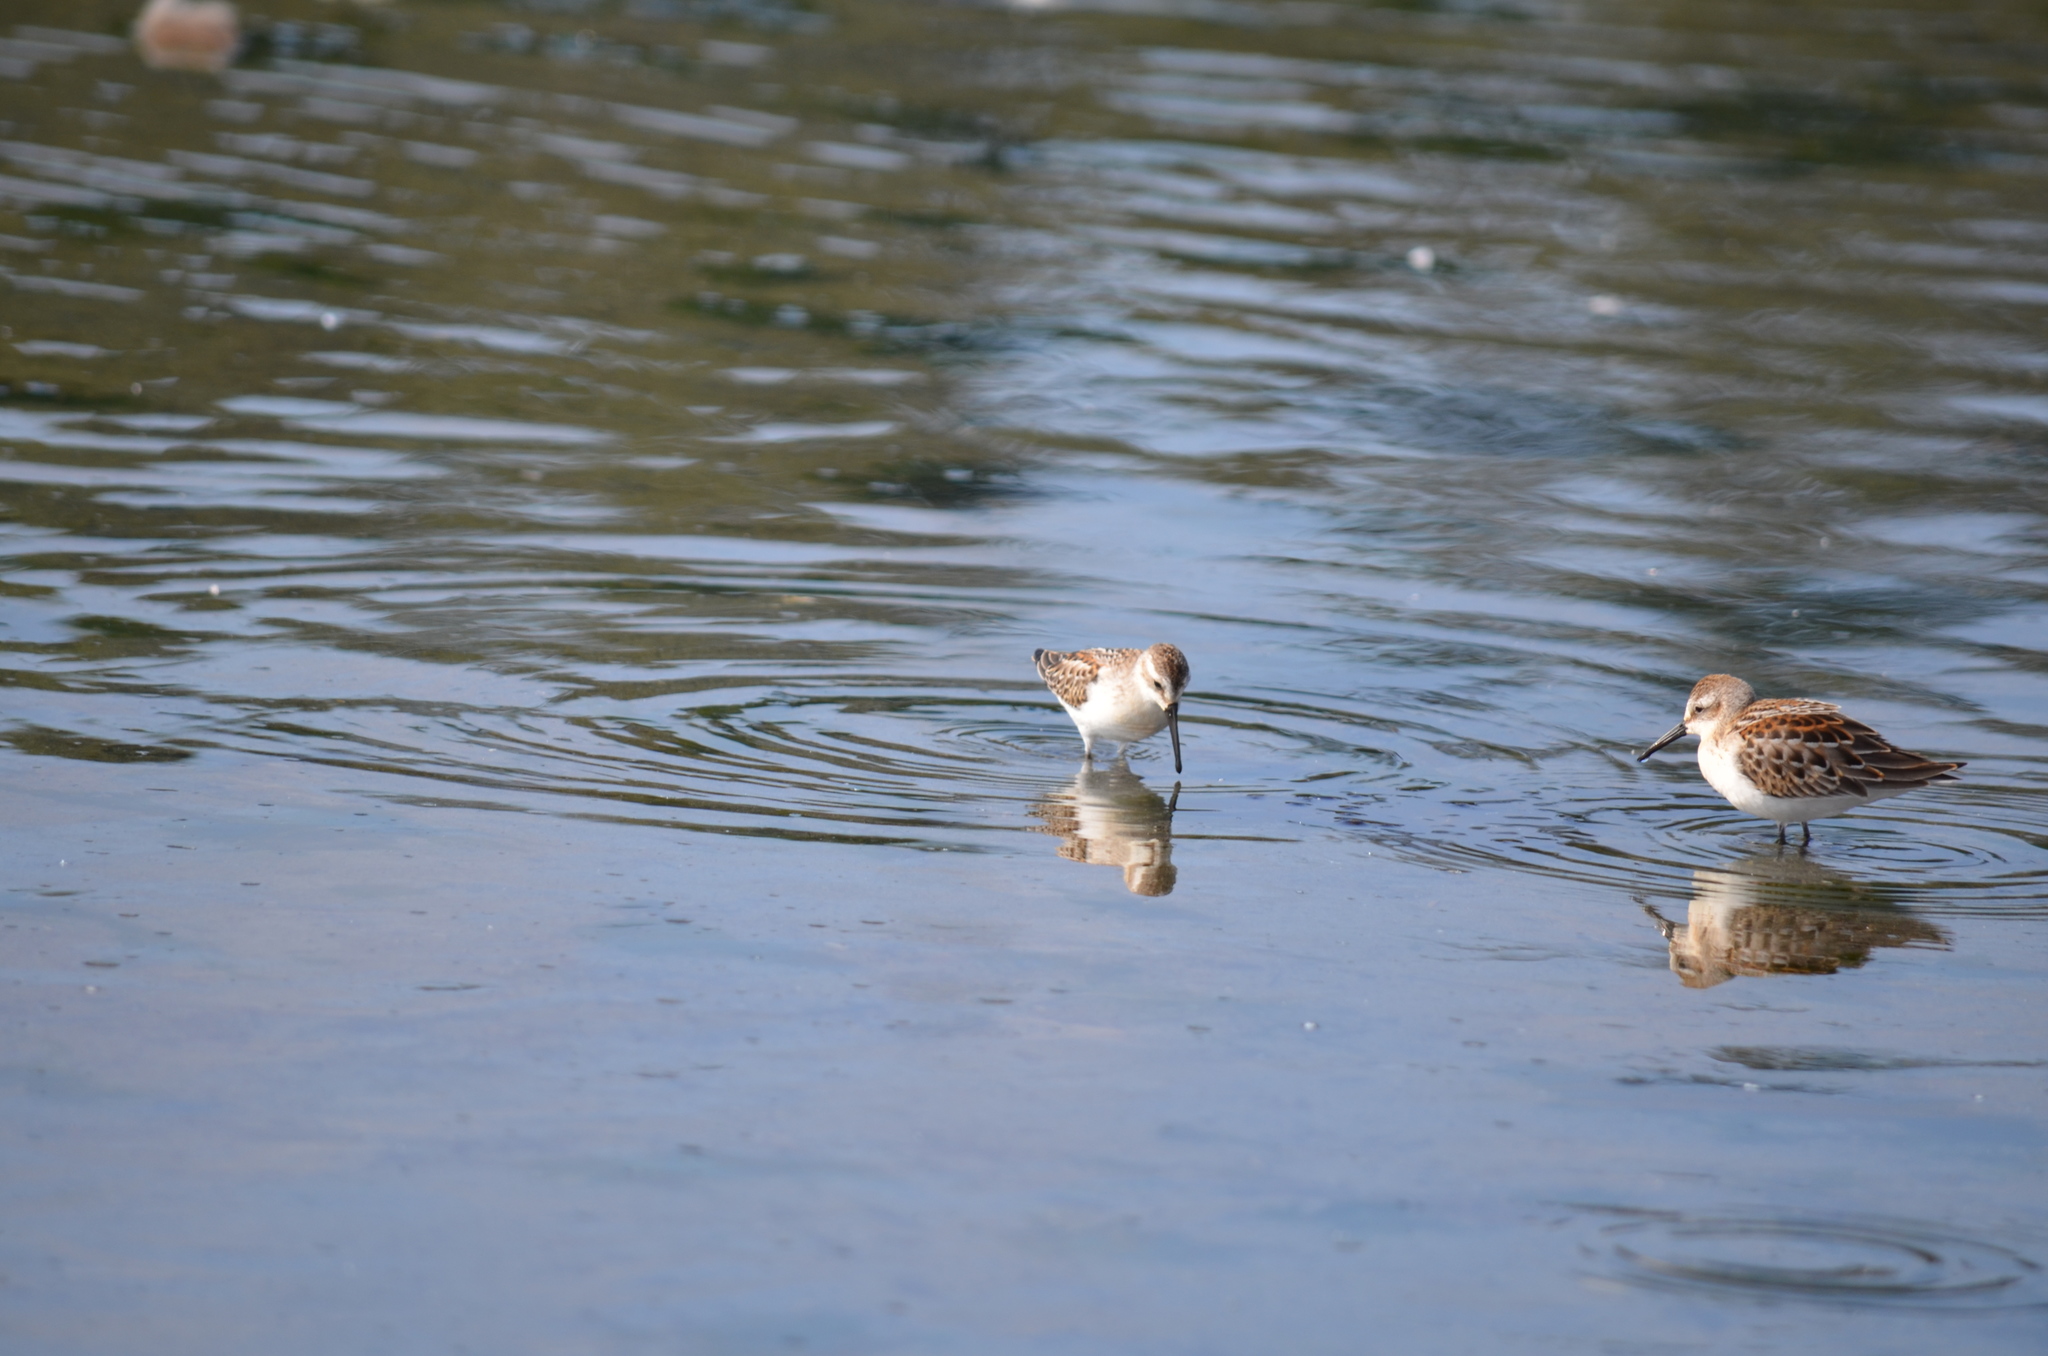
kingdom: Animalia
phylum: Chordata
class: Aves
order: Charadriiformes
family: Scolopacidae
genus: Calidris
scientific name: Calidris mauri
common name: Western sandpiper
